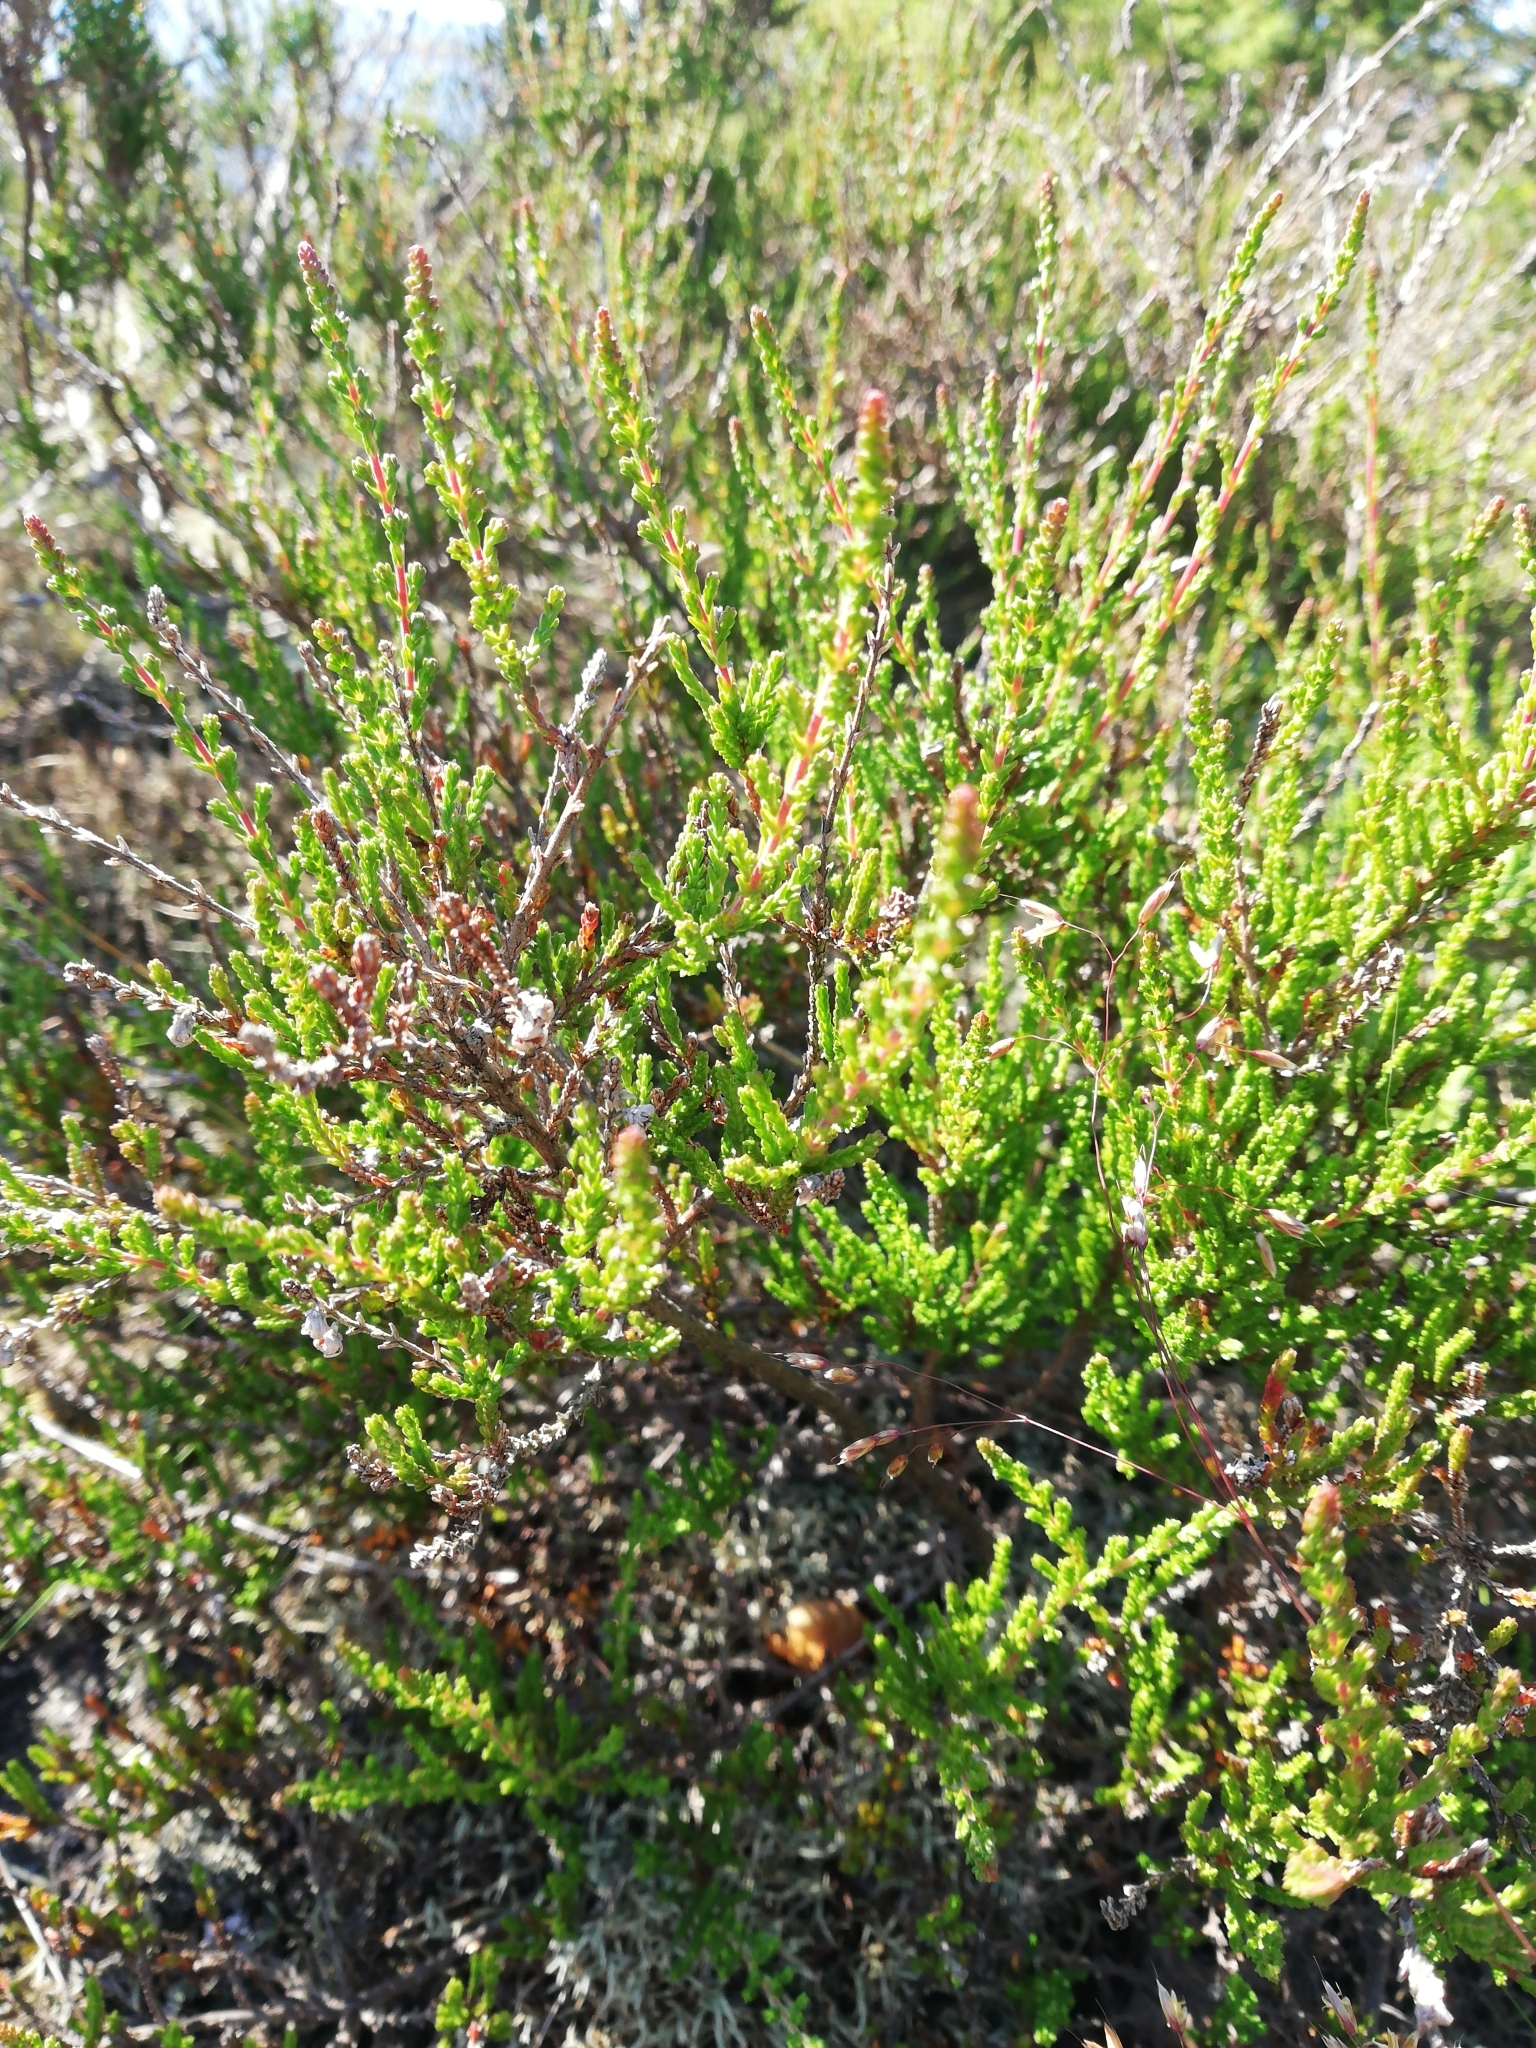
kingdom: Plantae
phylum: Tracheophyta
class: Magnoliopsida
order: Ericales
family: Ericaceae
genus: Calluna
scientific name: Calluna vulgaris
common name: Heather
